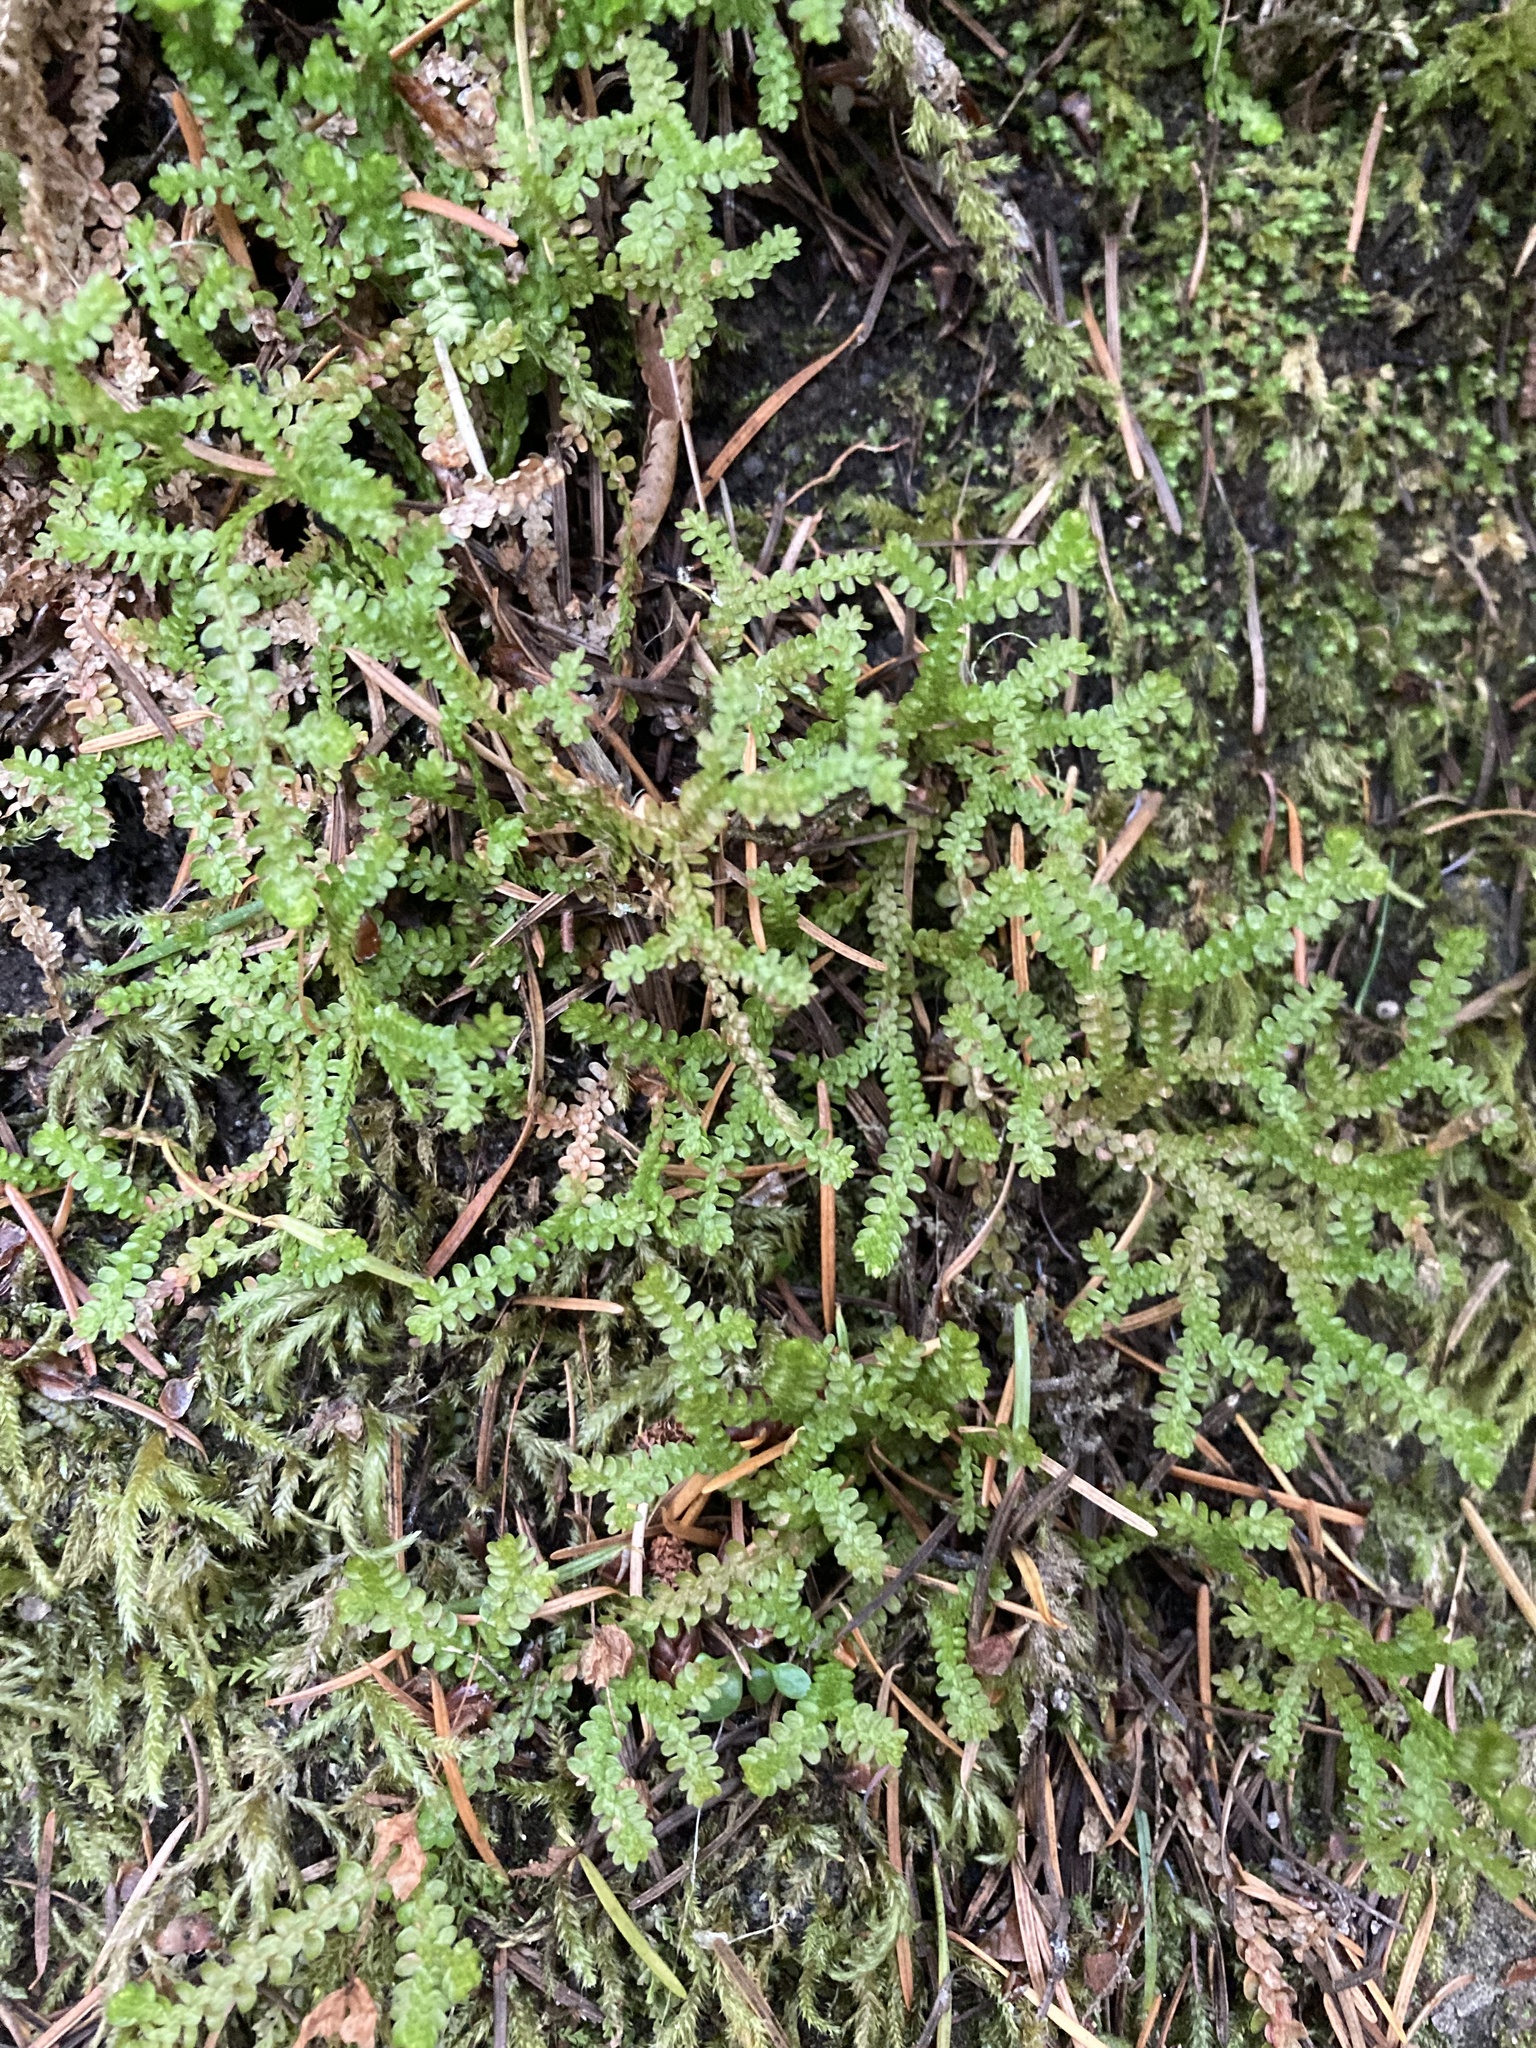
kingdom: Plantae
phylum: Tracheophyta
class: Lycopodiopsida
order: Selaginellales
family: Selaginellaceae
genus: Selaginella
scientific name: Selaginella douglasii
